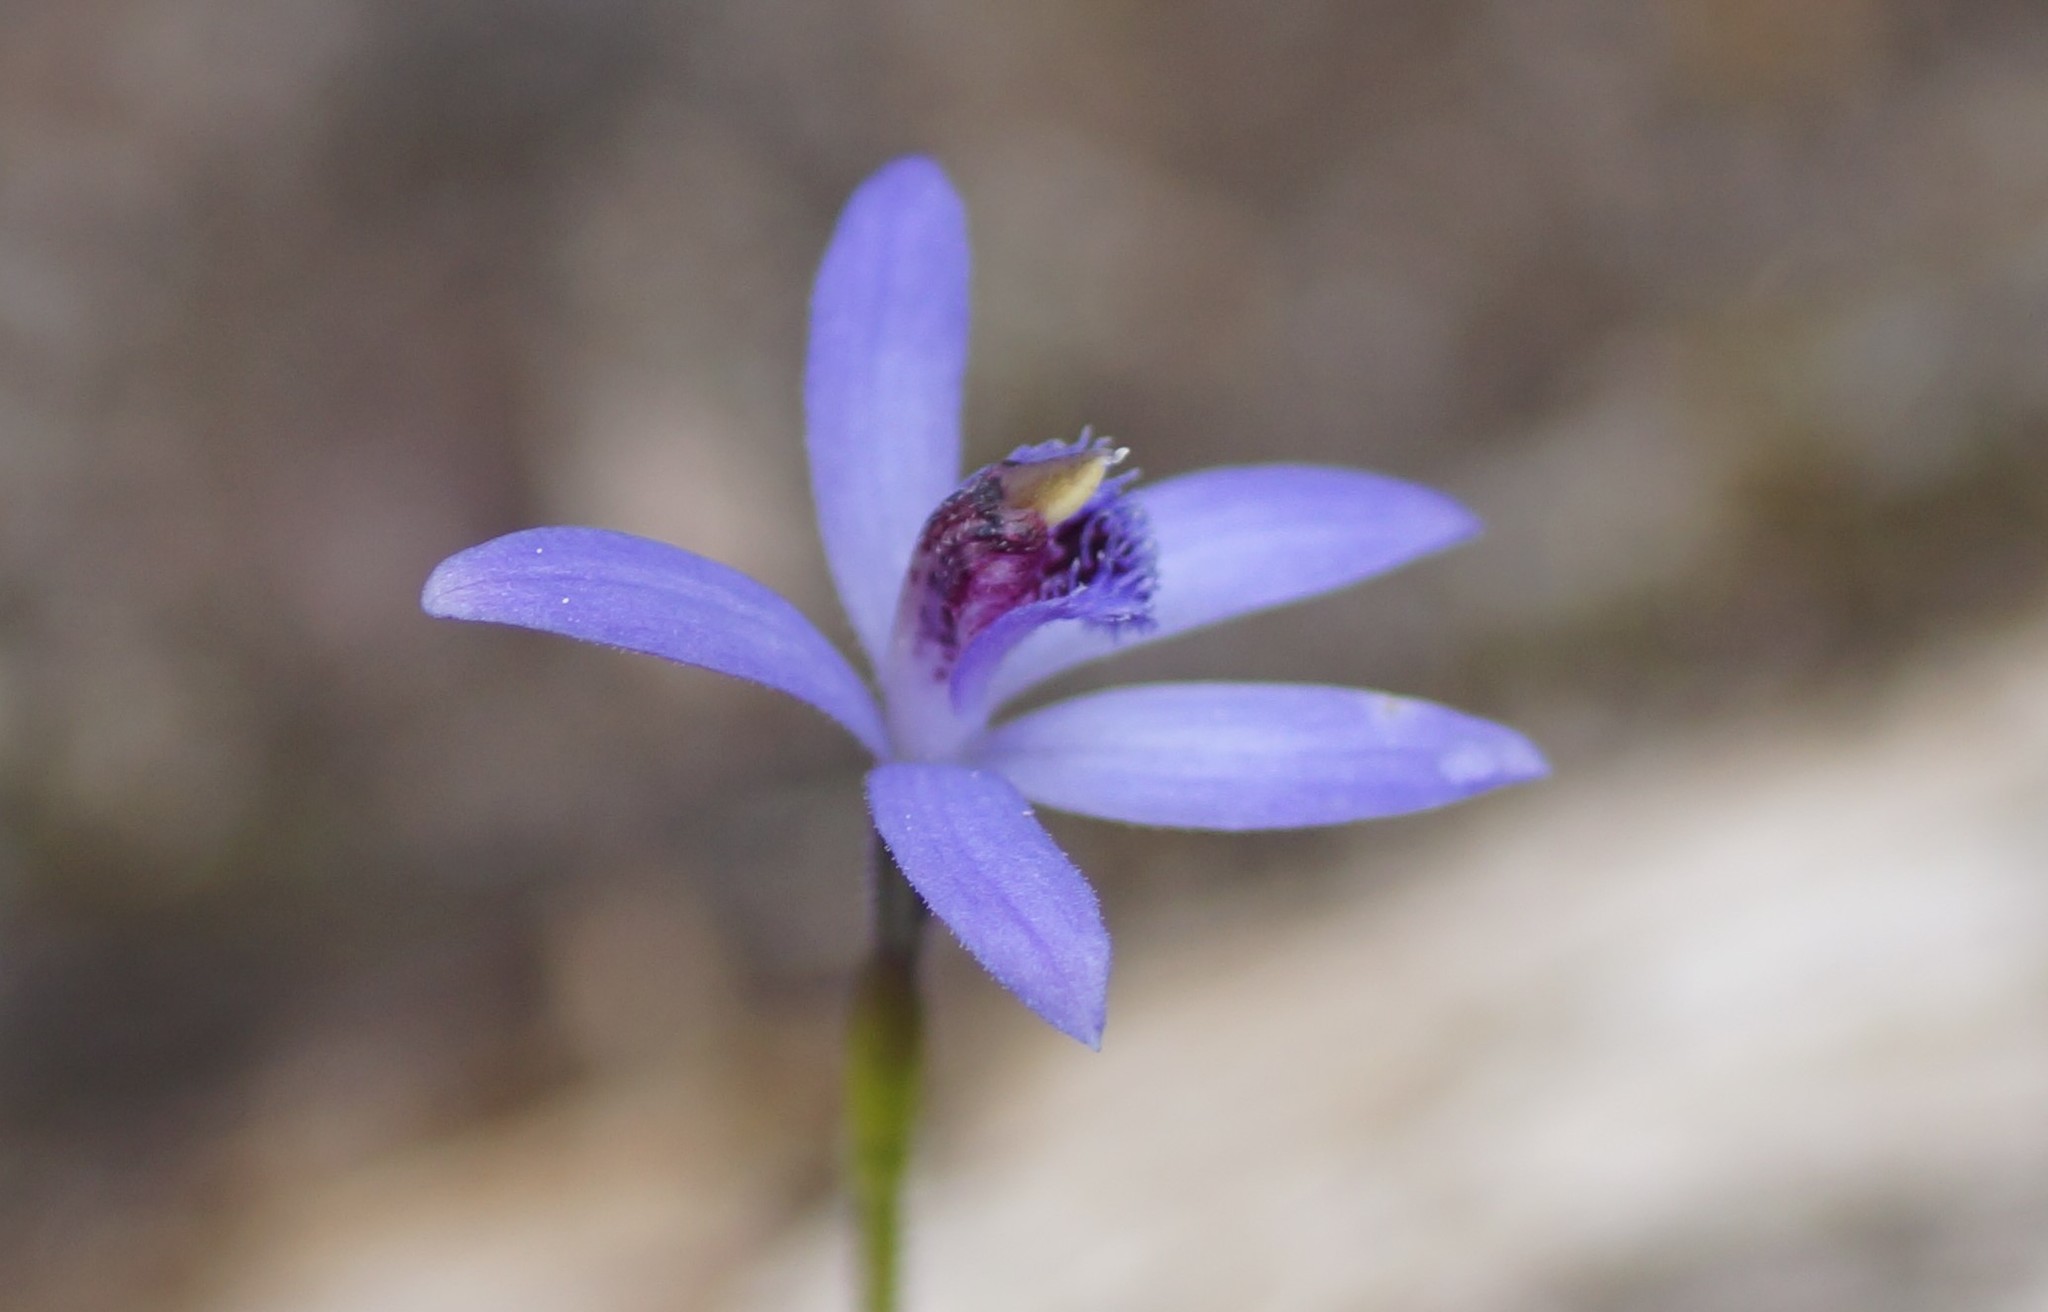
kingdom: Plantae
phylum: Tracheophyta
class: Liliopsida
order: Asparagales
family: Orchidaceae
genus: Pheladenia
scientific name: Pheladenia deformis
